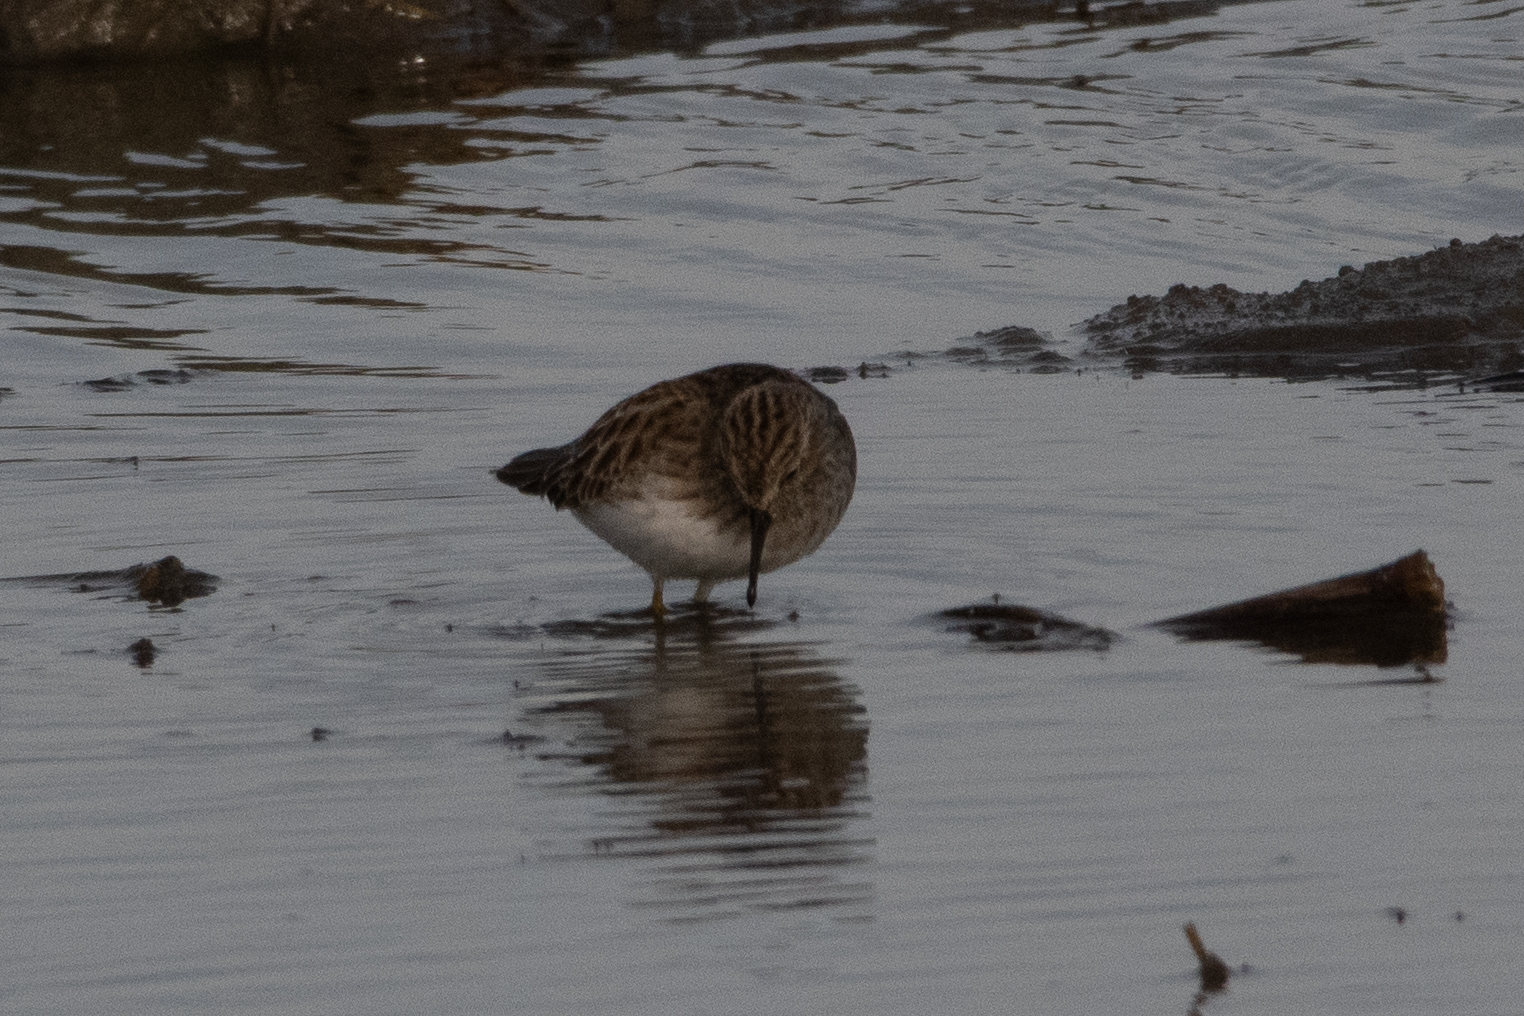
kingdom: Animalia
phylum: Chordata
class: Aves
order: Charadriiformes
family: Scolopacidae
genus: Calidris
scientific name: Calidris minutilla
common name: Least sandpiper
